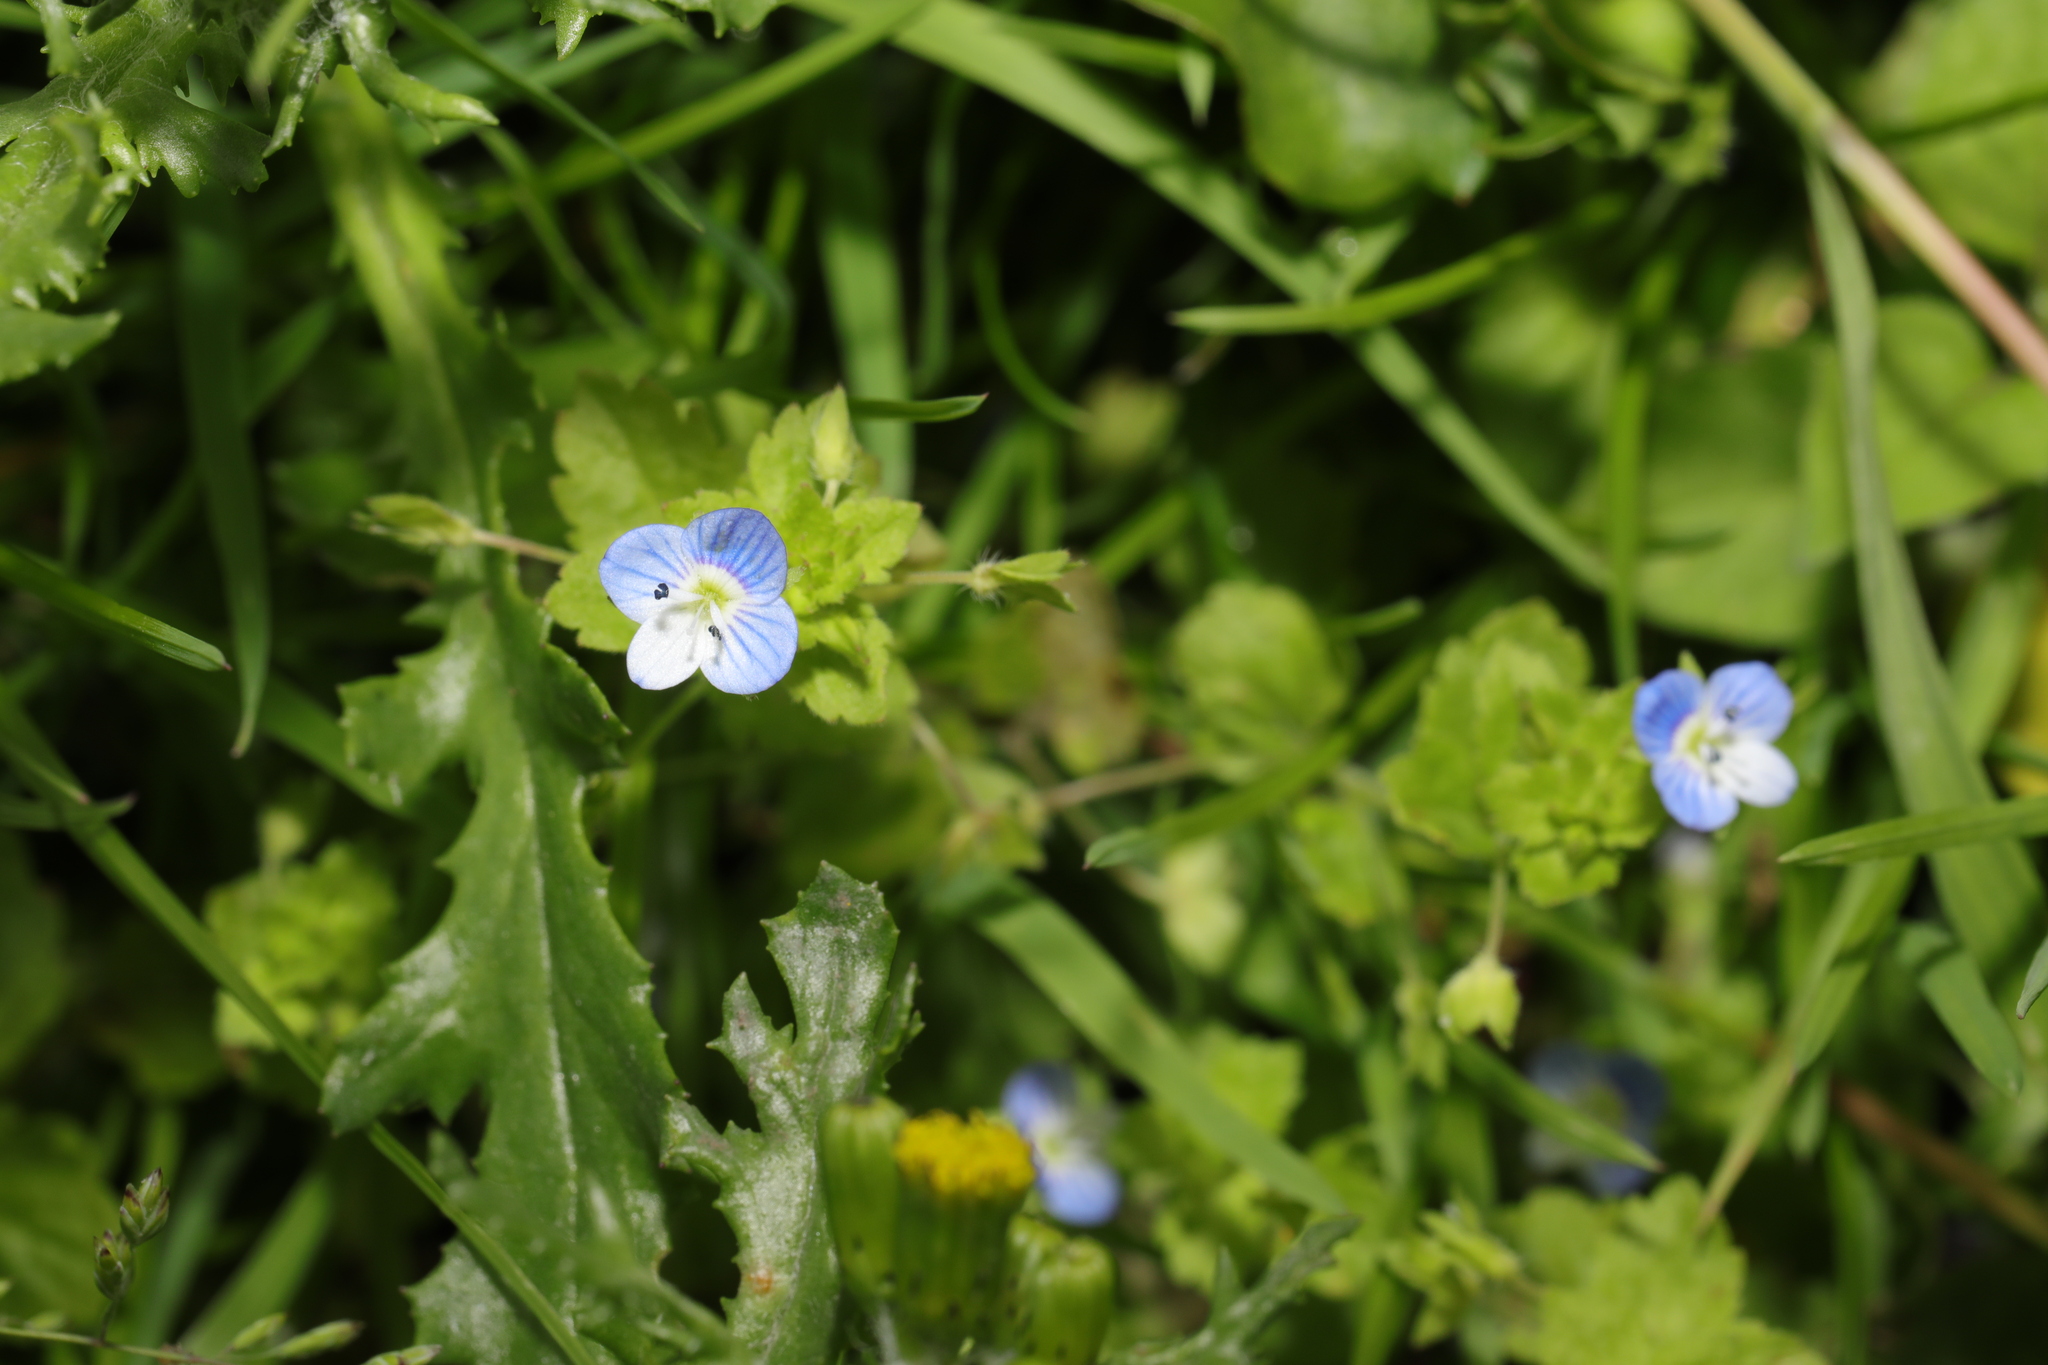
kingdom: Plantae
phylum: Tracheophyta
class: Magnoliopsida
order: Lamiales
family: Plantaginaceae
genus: Veronica
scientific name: Veronica persica
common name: Common field-speedwell
